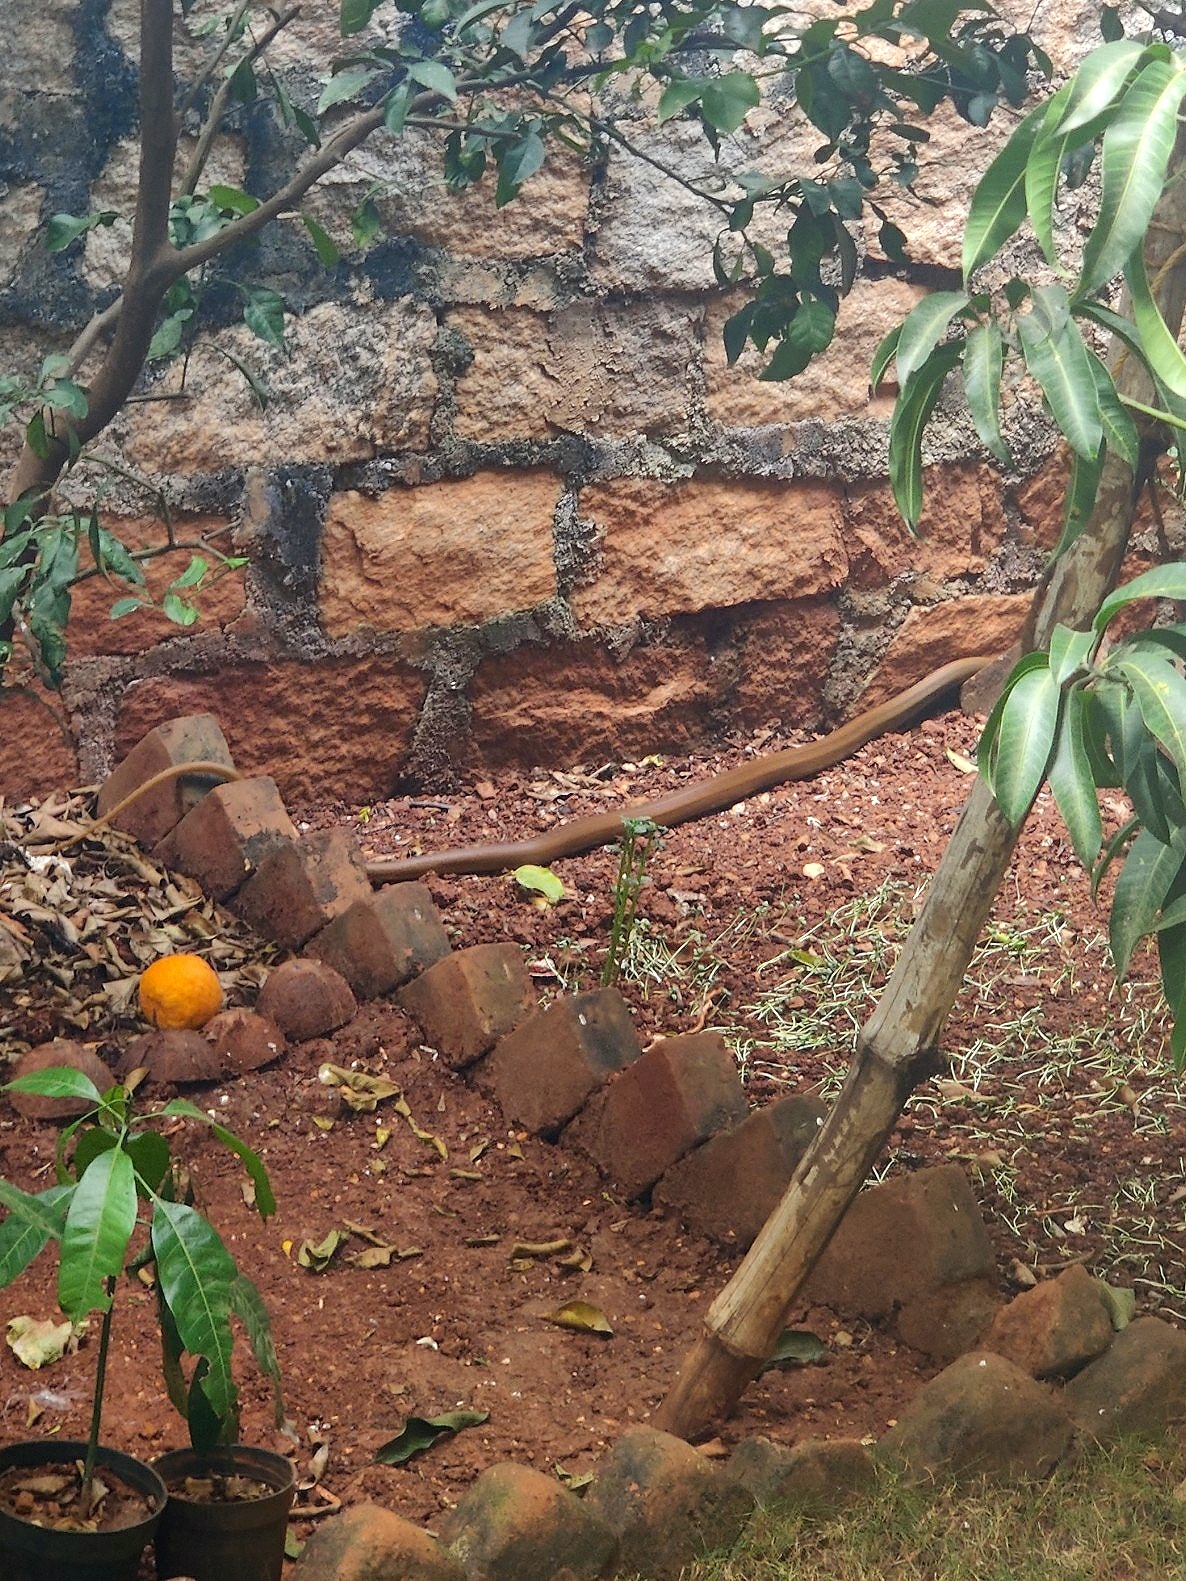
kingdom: Animalia
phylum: Chordata
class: Squamata
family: Colubridae
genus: Ptyas
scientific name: Ptyas mucosa
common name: Oriental ratsnake
